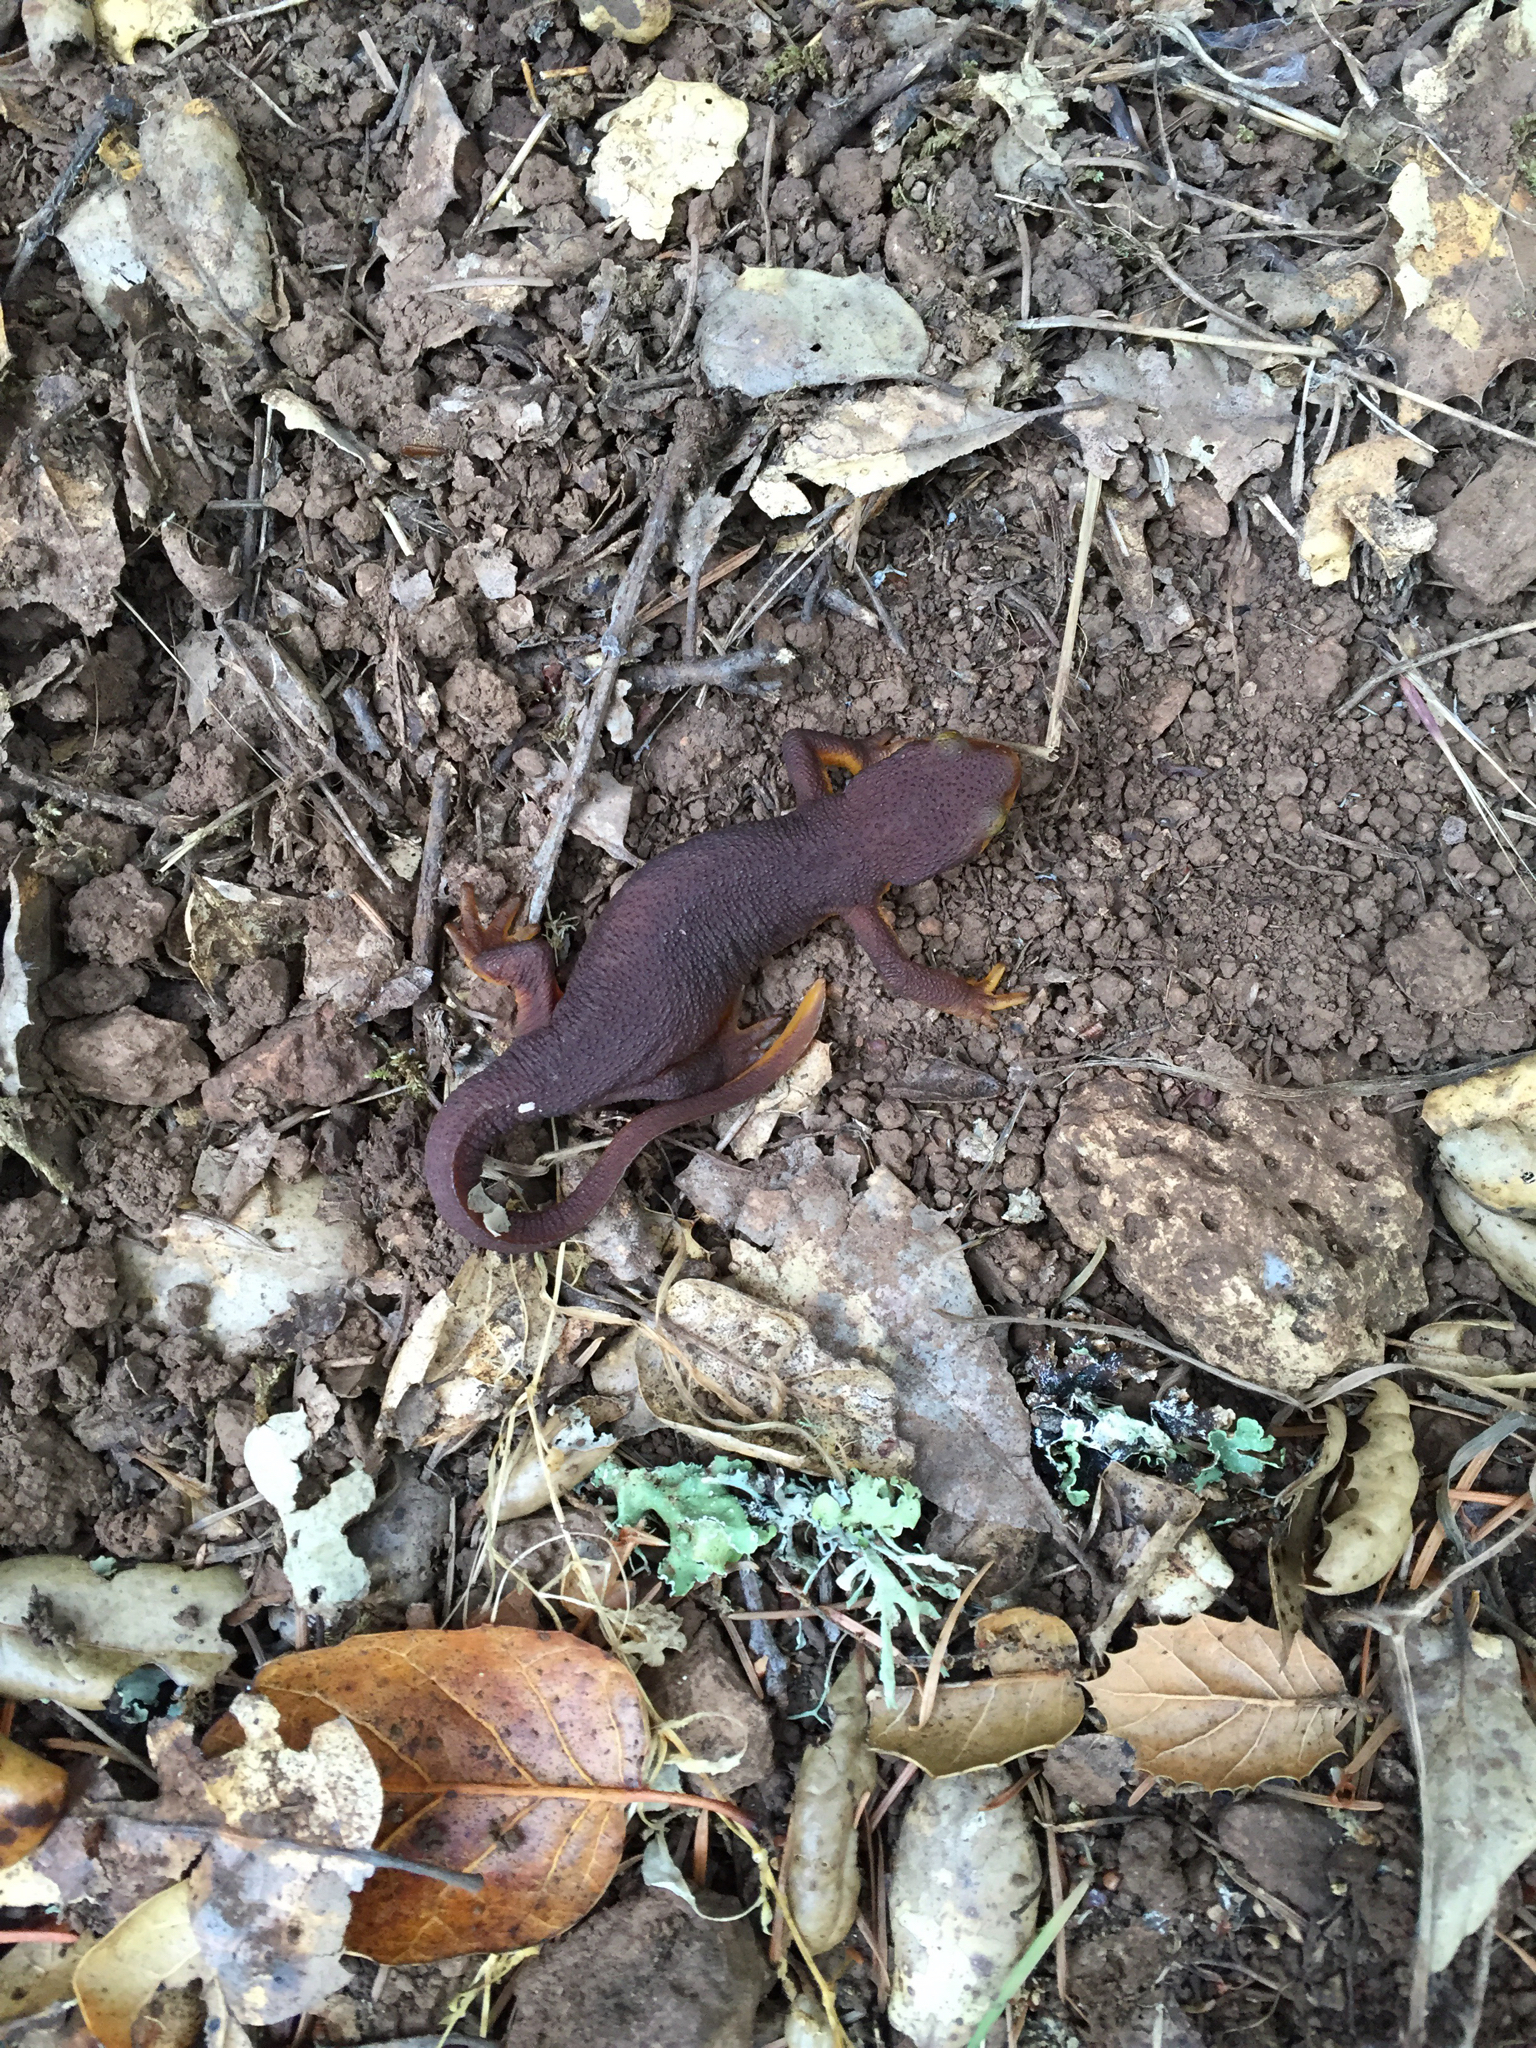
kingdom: Animalia
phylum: Chordata
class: Amphibia
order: Caudata
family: Salamandridae
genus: Taricha
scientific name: Taricha torosa
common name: California newt
